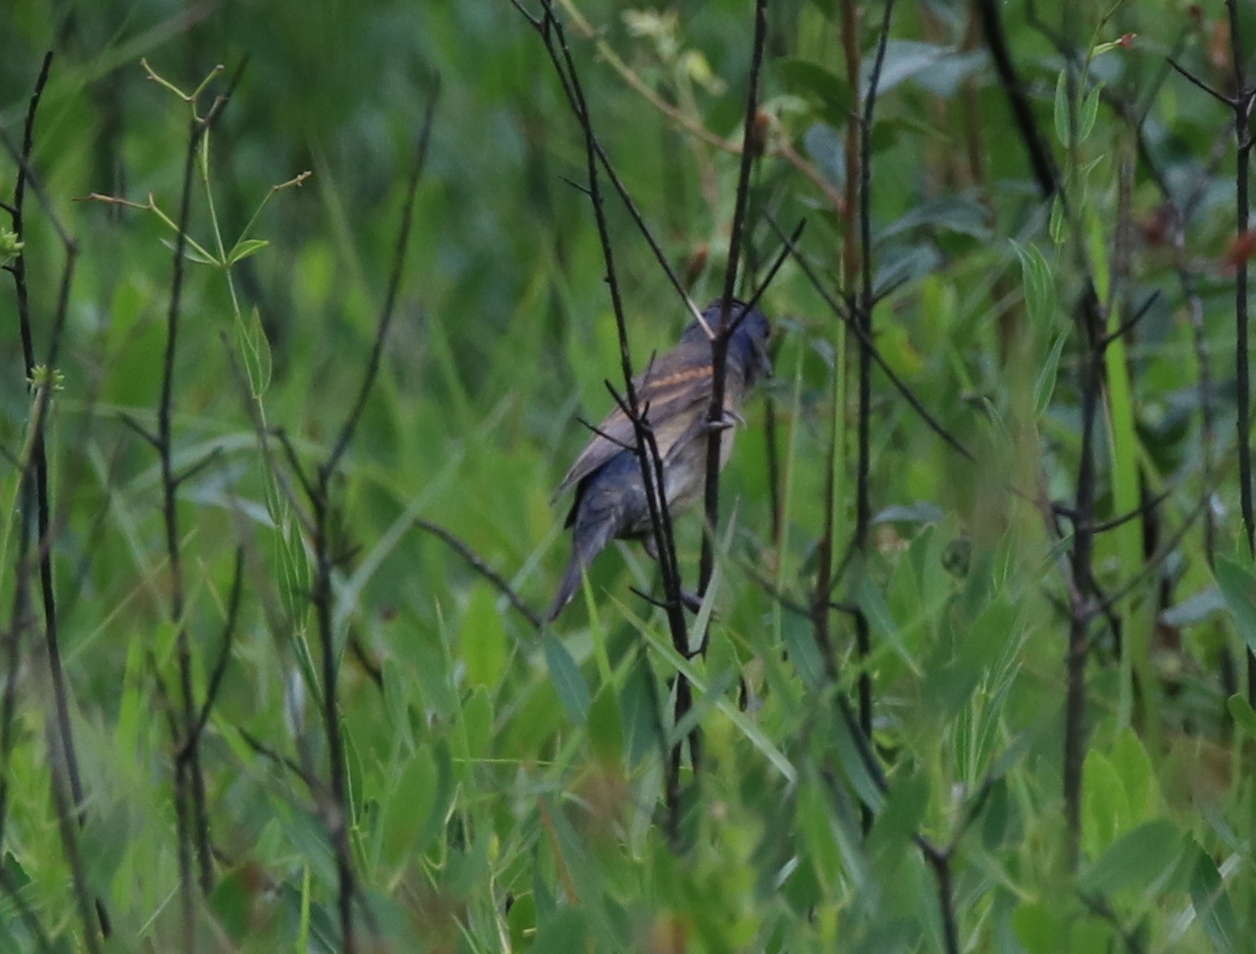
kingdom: Animalia
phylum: Chordata
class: Aves
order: Passeriformes
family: Cardinalidae
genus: Passerina
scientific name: Passerina caerulea
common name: Blue grosbeak
